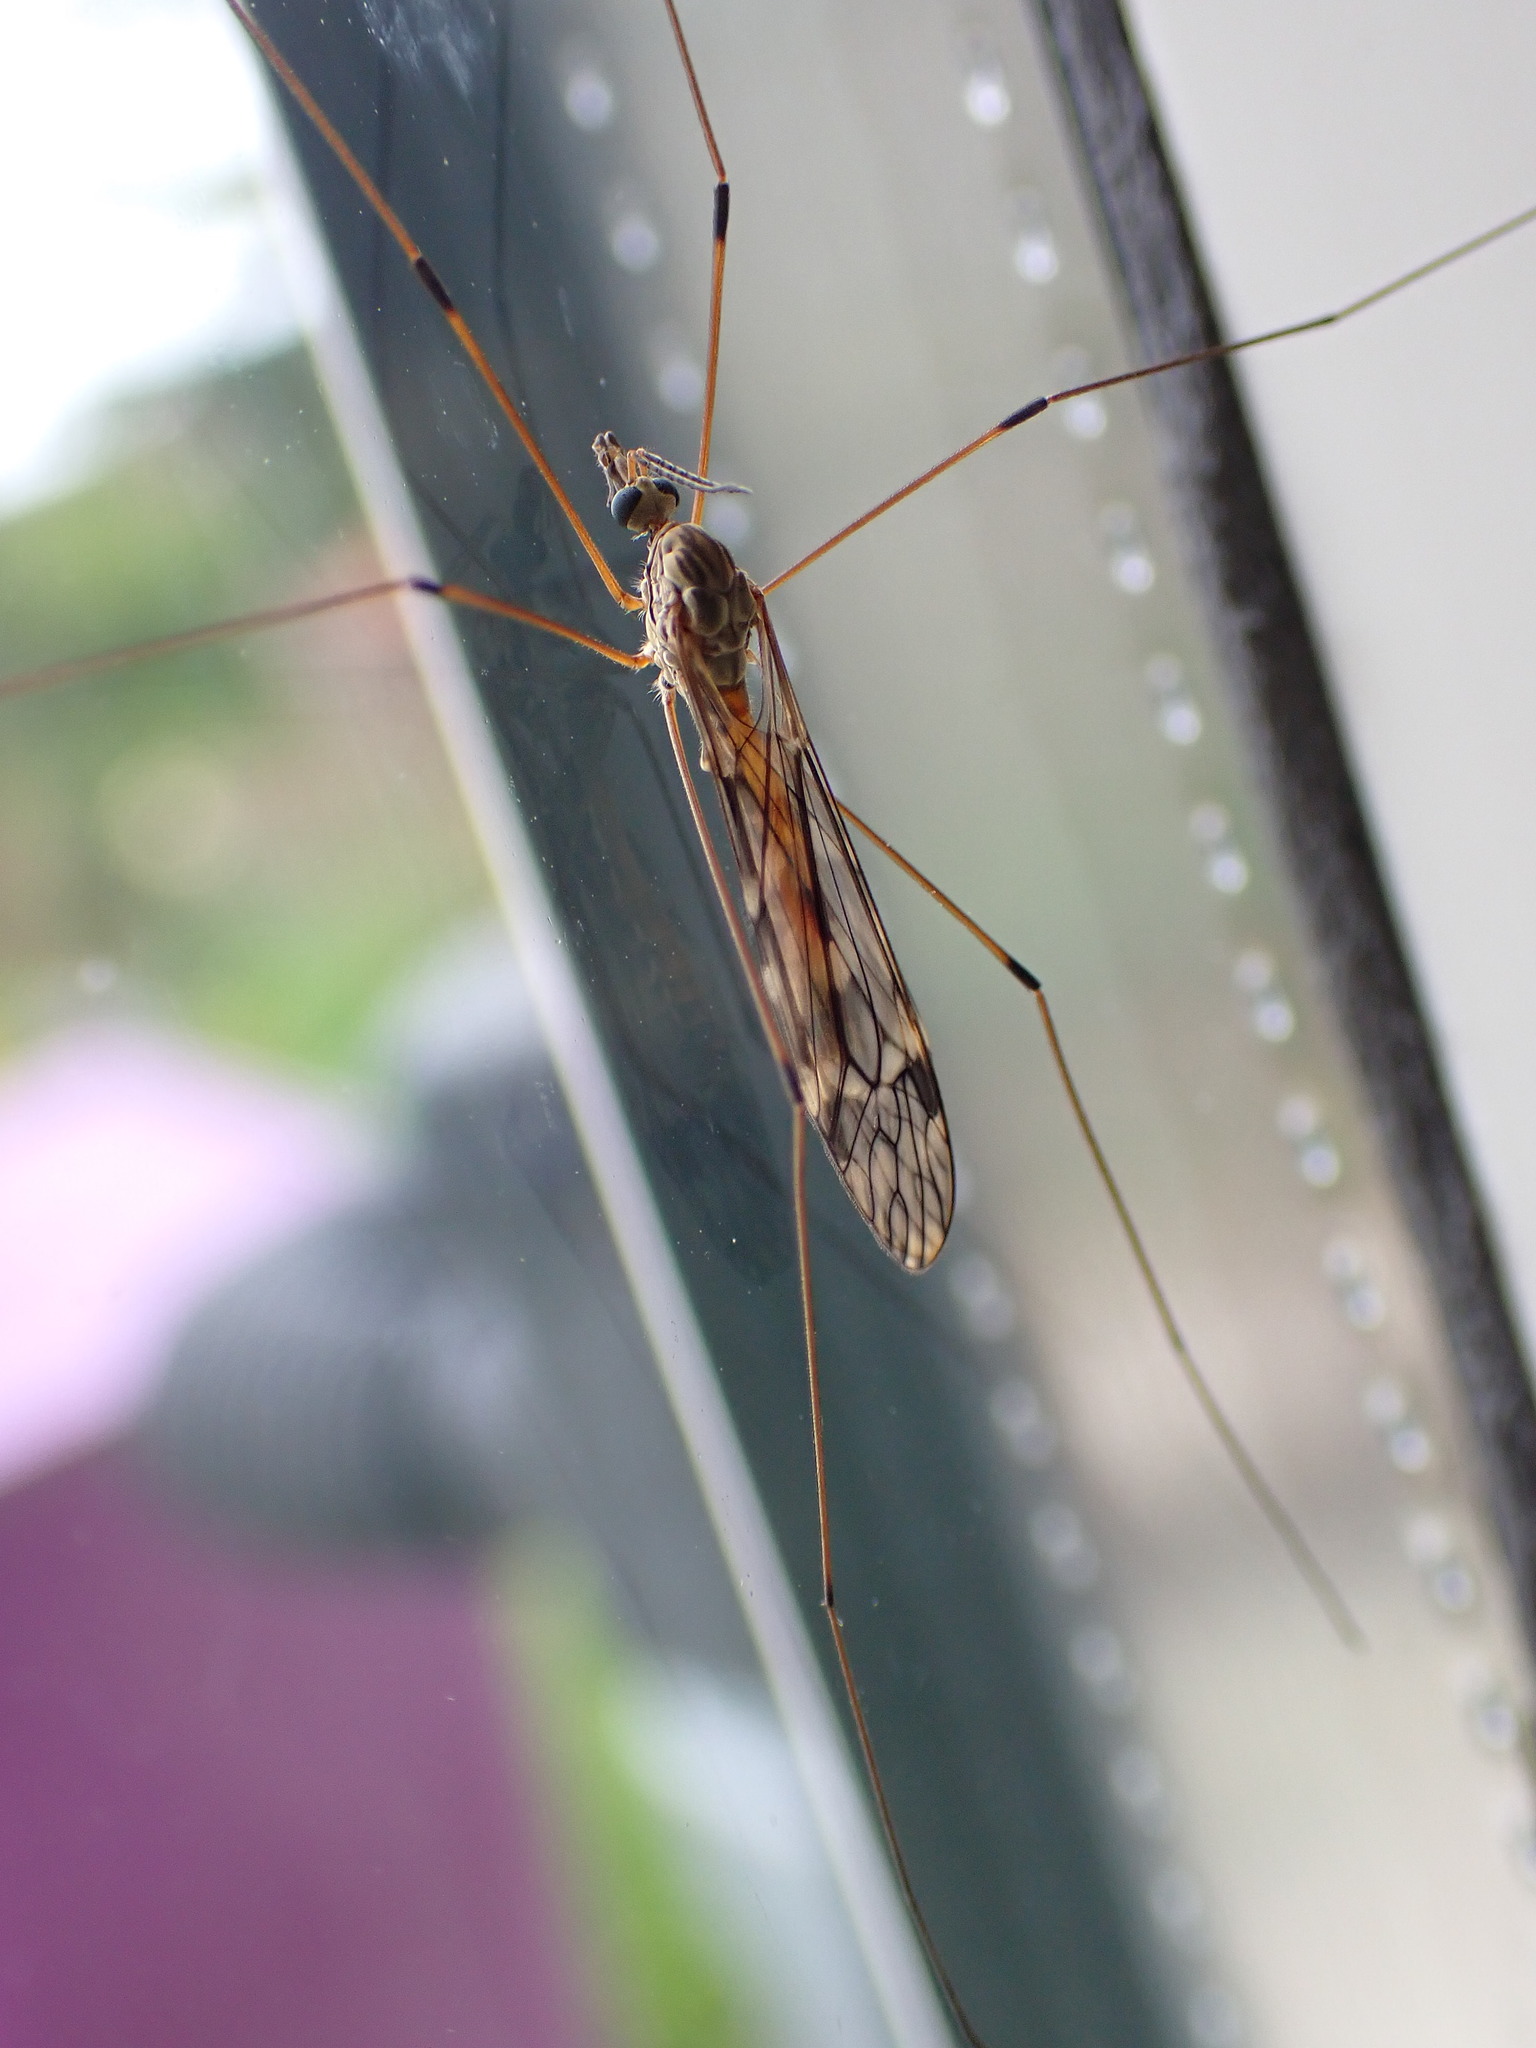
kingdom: Animalia
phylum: Arthropoda
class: Insecta
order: Diptera
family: Tipulidae
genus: Tipula
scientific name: Tipula rufina
